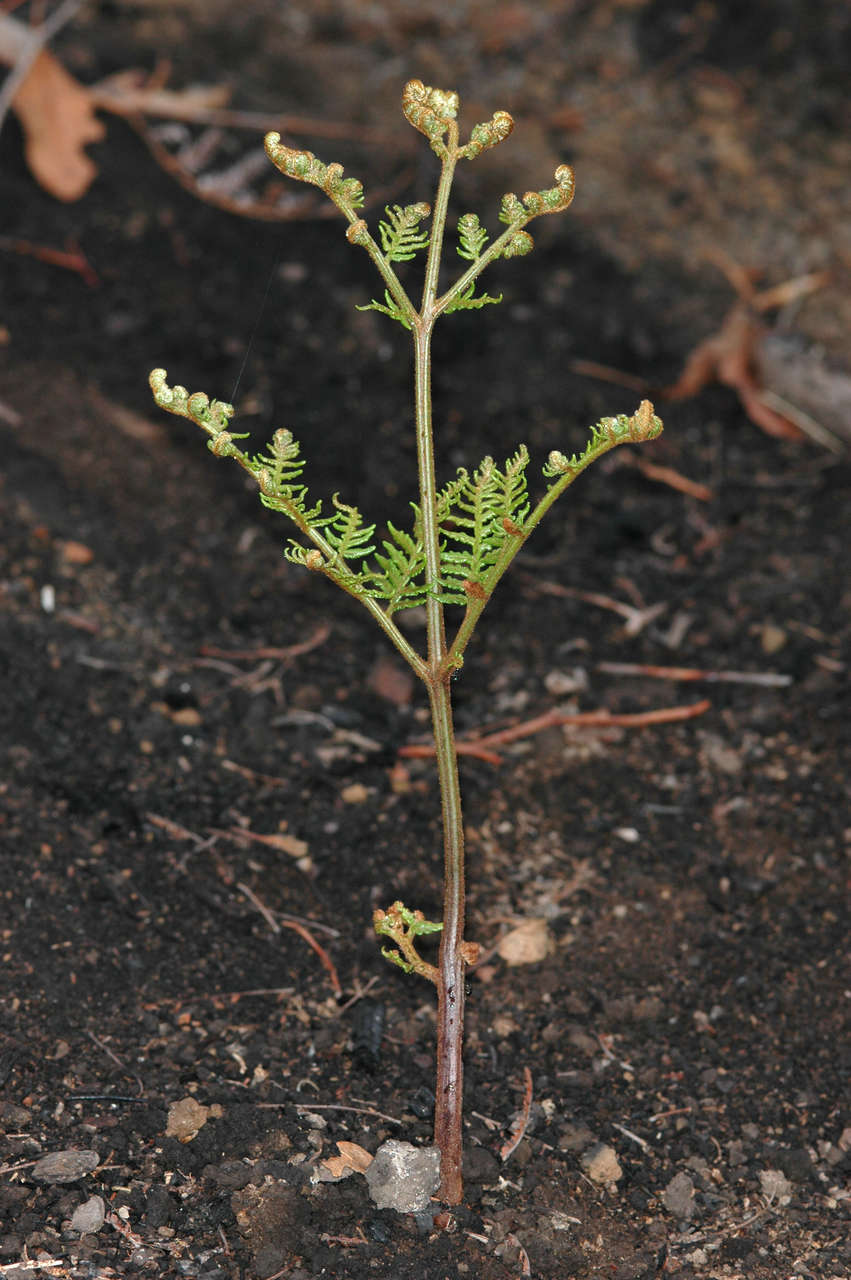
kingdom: Plantae
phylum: Tracheophyta
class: Polypodiopsida
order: Polypodiales
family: Dennstaedtiaceae
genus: Pteridium
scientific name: Pteridium esculentum
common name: Bracken fern
